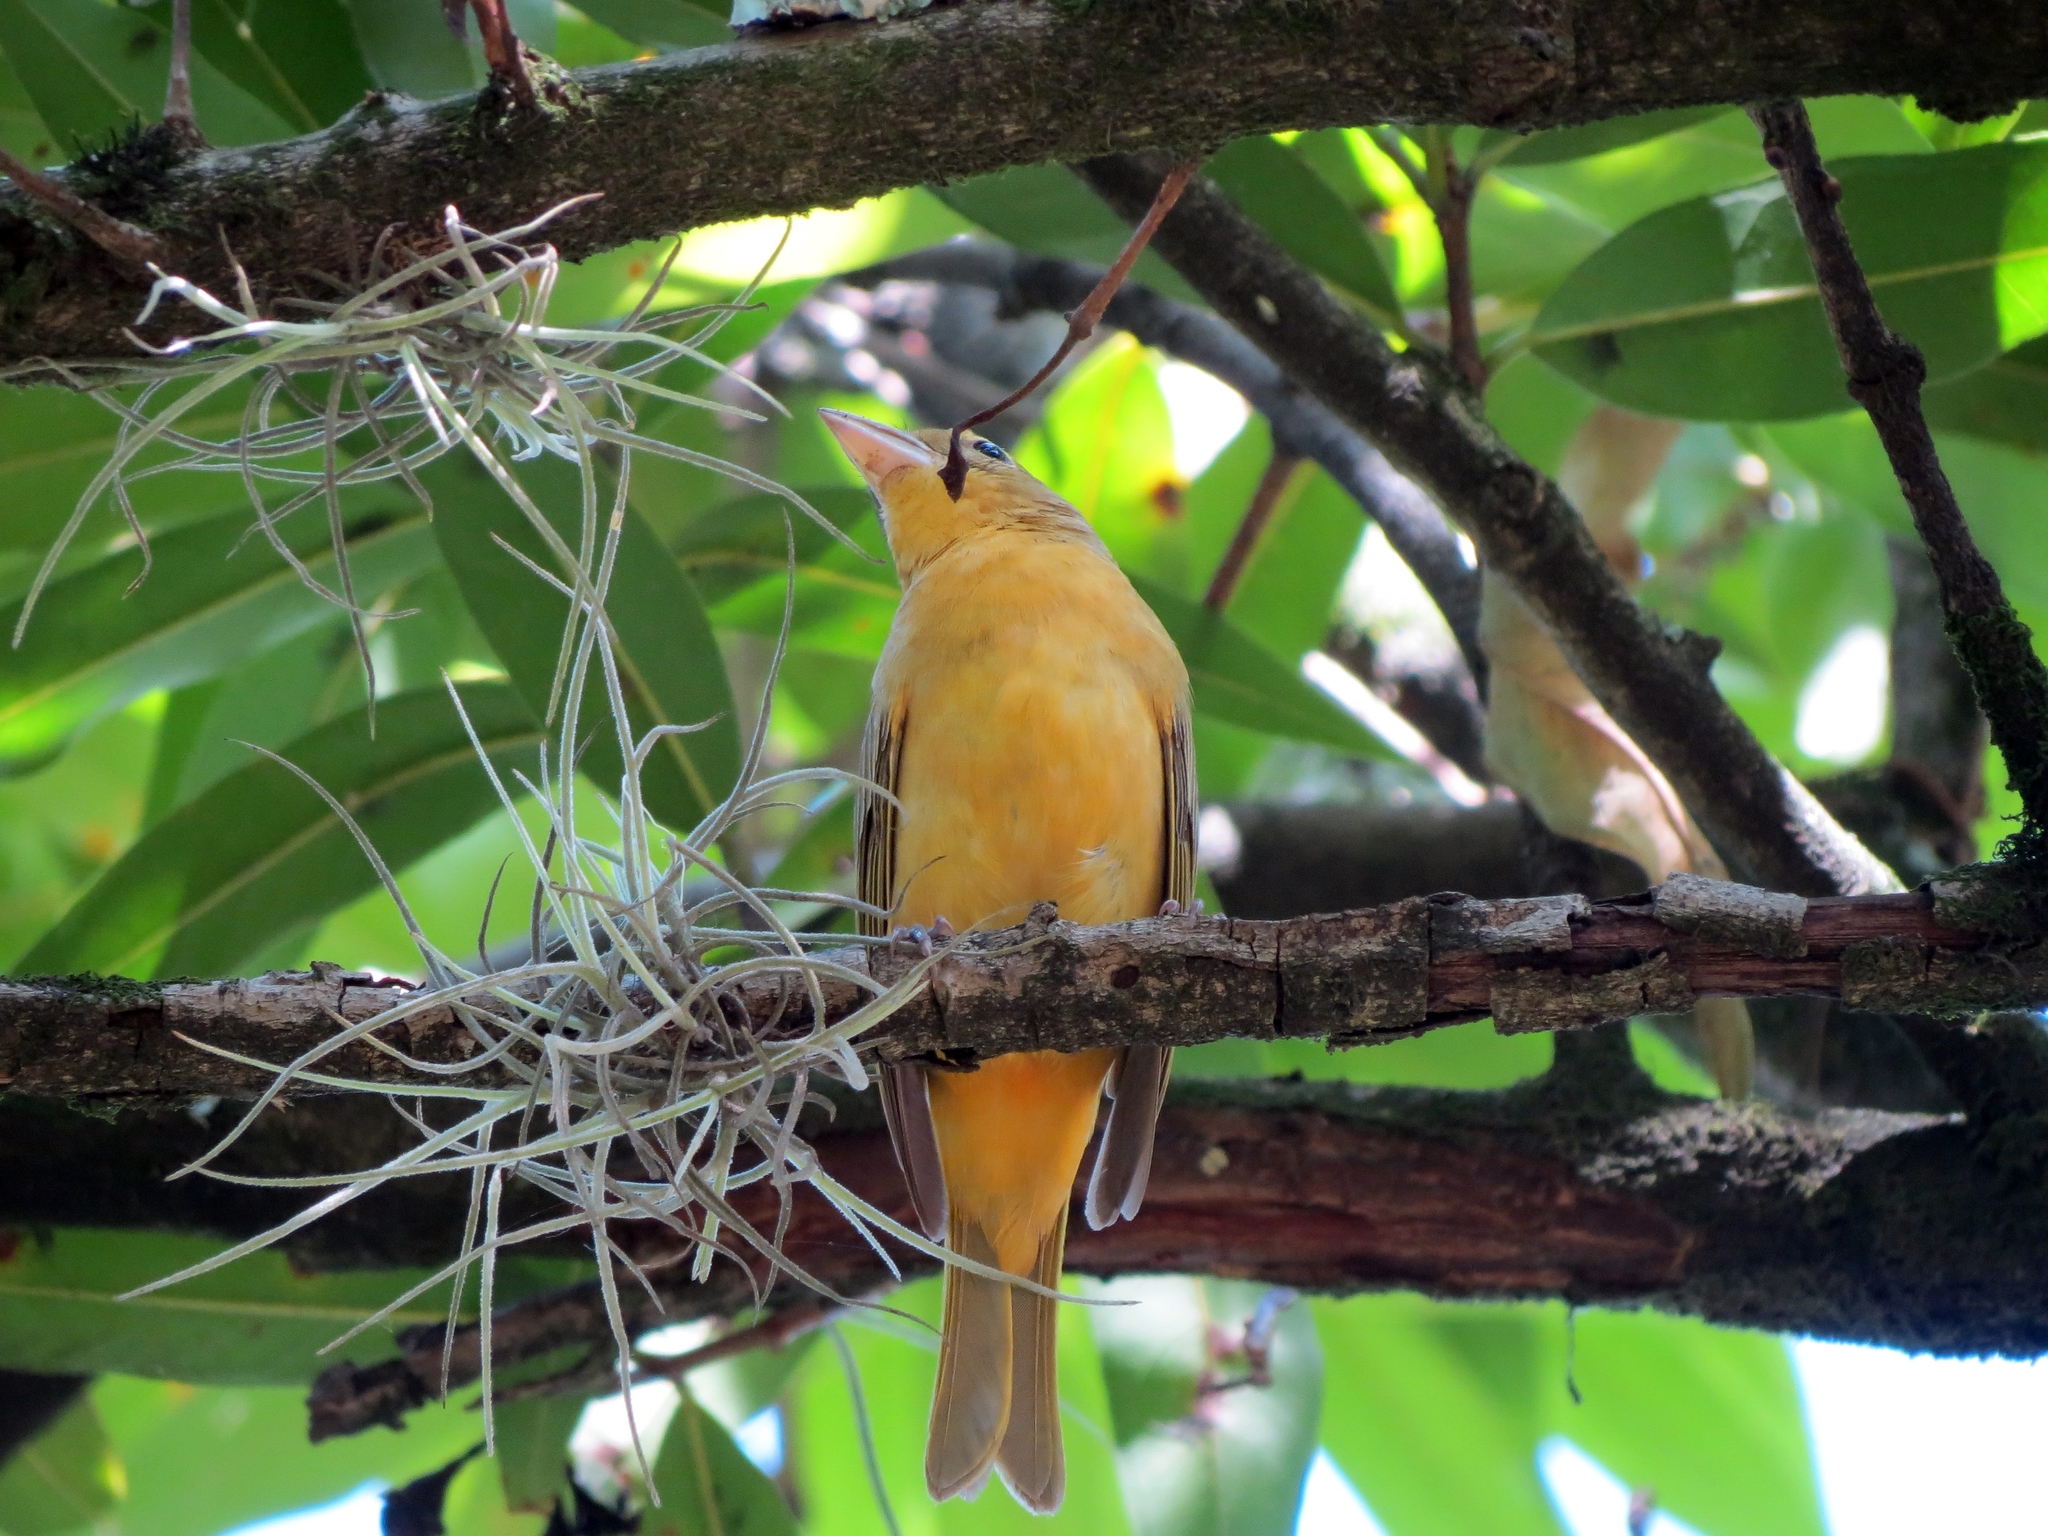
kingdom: Animalia
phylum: Chordata
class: Aves
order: Passeriformes
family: Cardinalidae
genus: Piranga
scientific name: Piranga rubra
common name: Summer tanager
